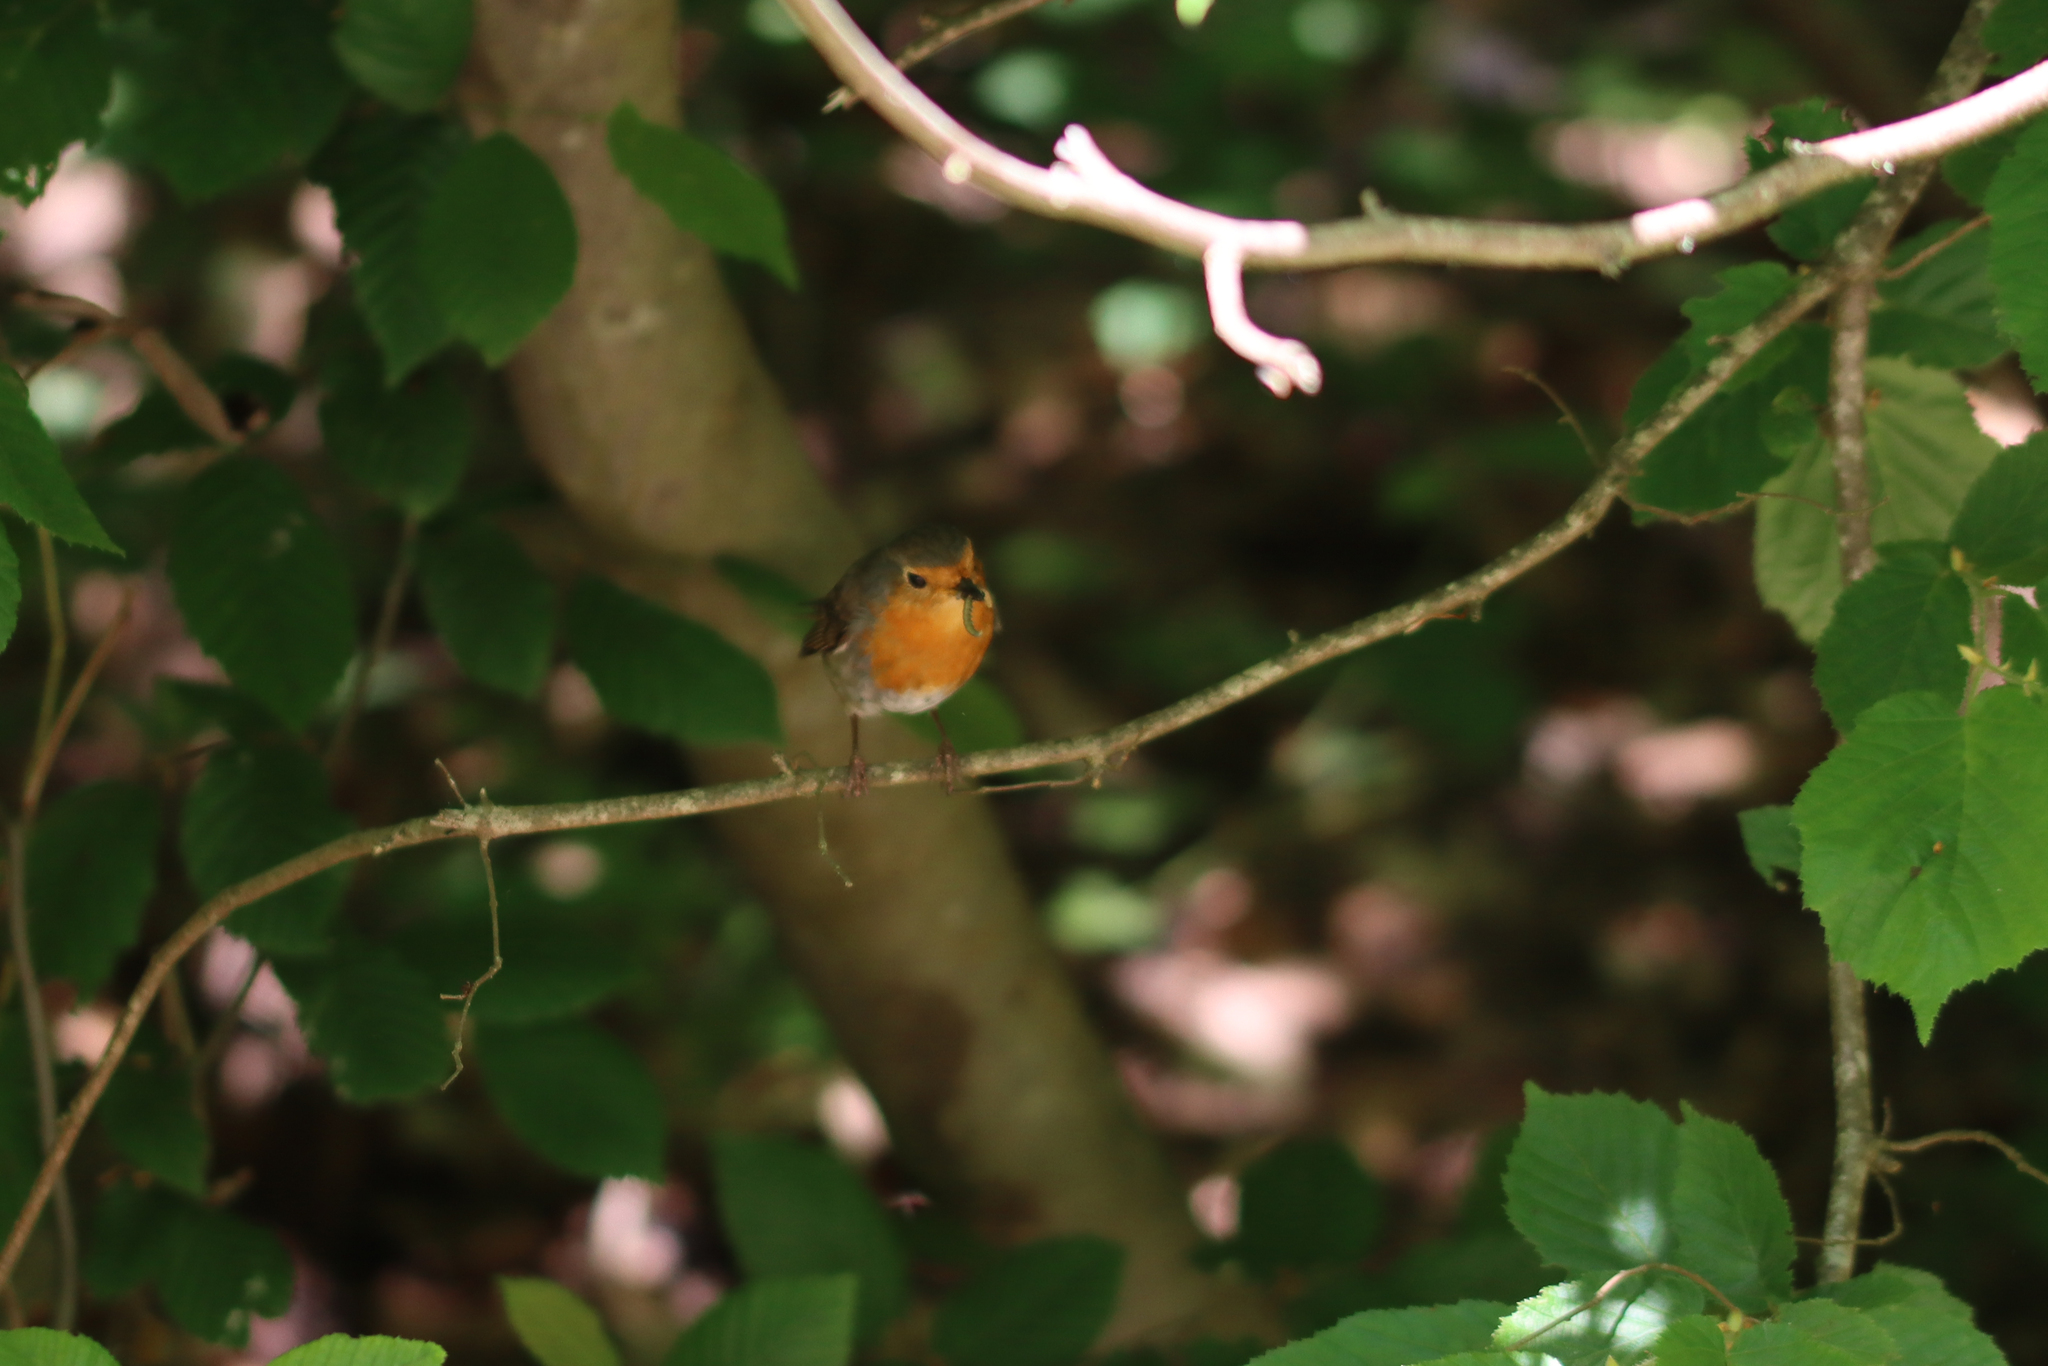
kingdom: Animalia
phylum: Chordata
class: Aves
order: Passeriformes
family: Muscicapidae
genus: Erithacus
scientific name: Erithacus rubecula
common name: European robin
